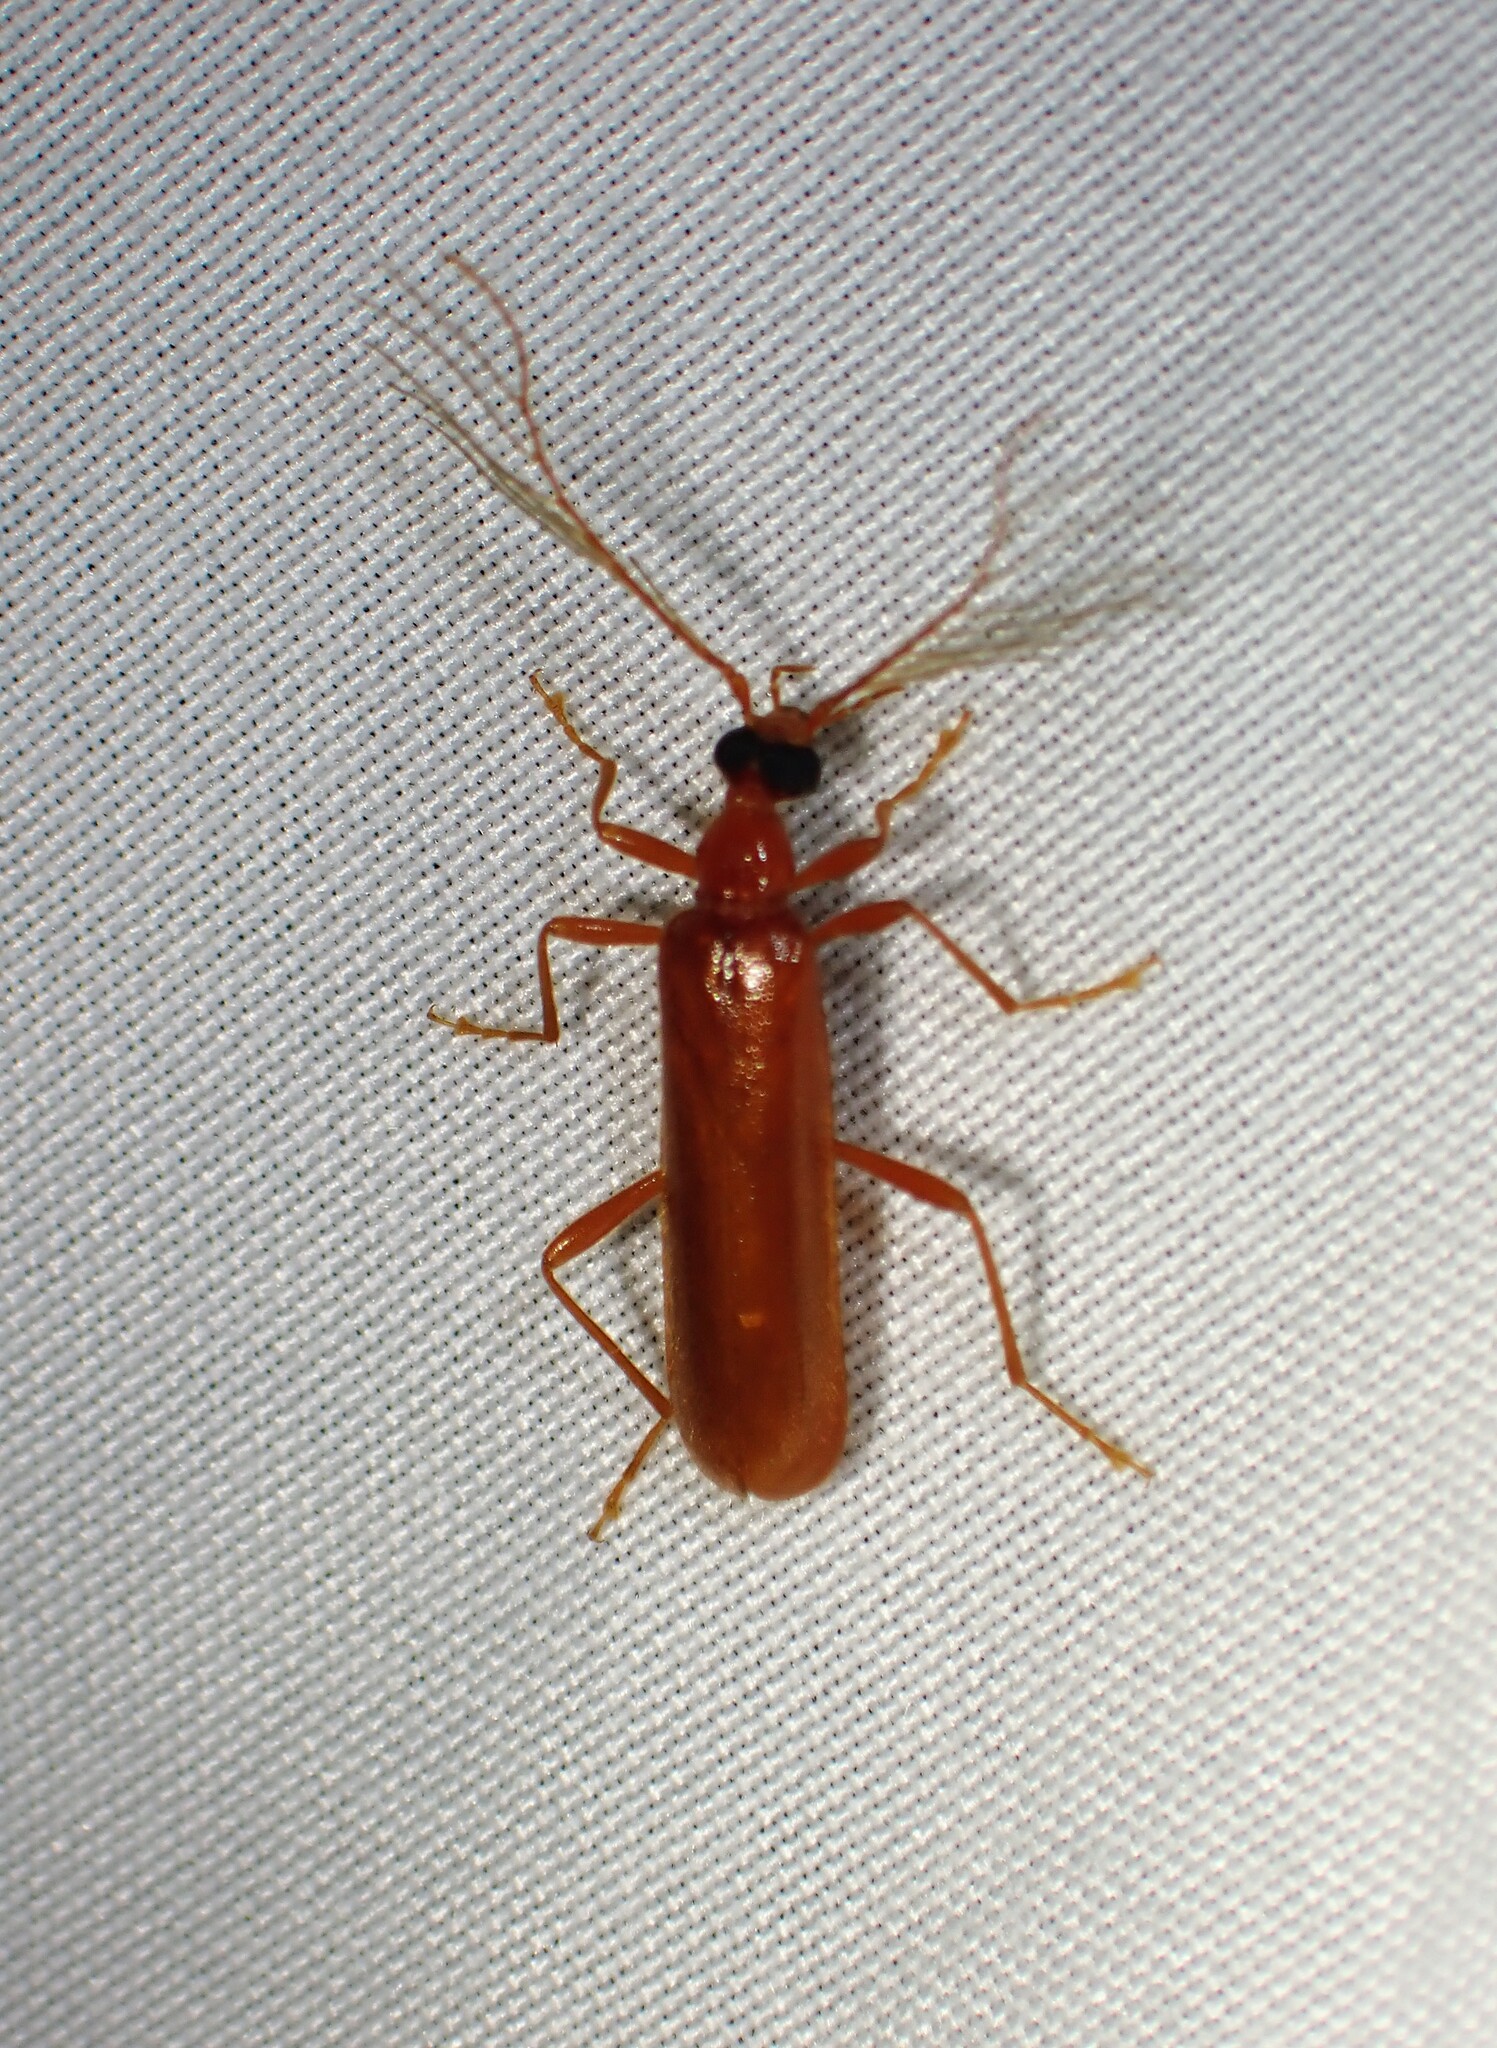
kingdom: Animalia
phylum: Arthropoda
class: Insecta
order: Coleoptera
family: Pyrochroidae
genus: Dendroides
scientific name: Dendroides concolor
